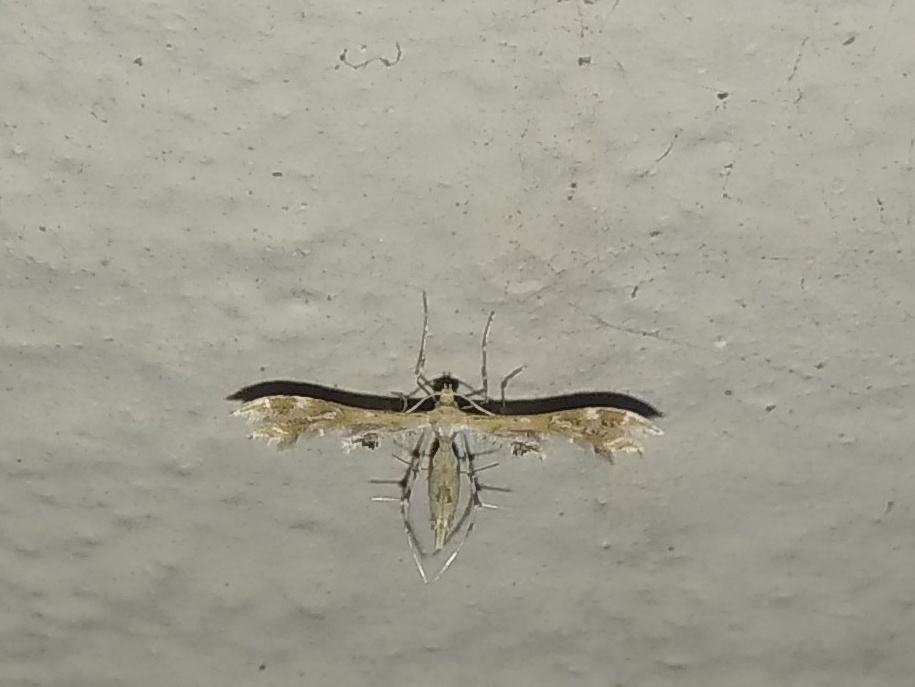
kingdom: Animalia
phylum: Arthropoda
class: Insecta
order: Lepidoptera
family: Pterophoridae
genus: Sphenarches
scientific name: Sphenarches anisodactylus
